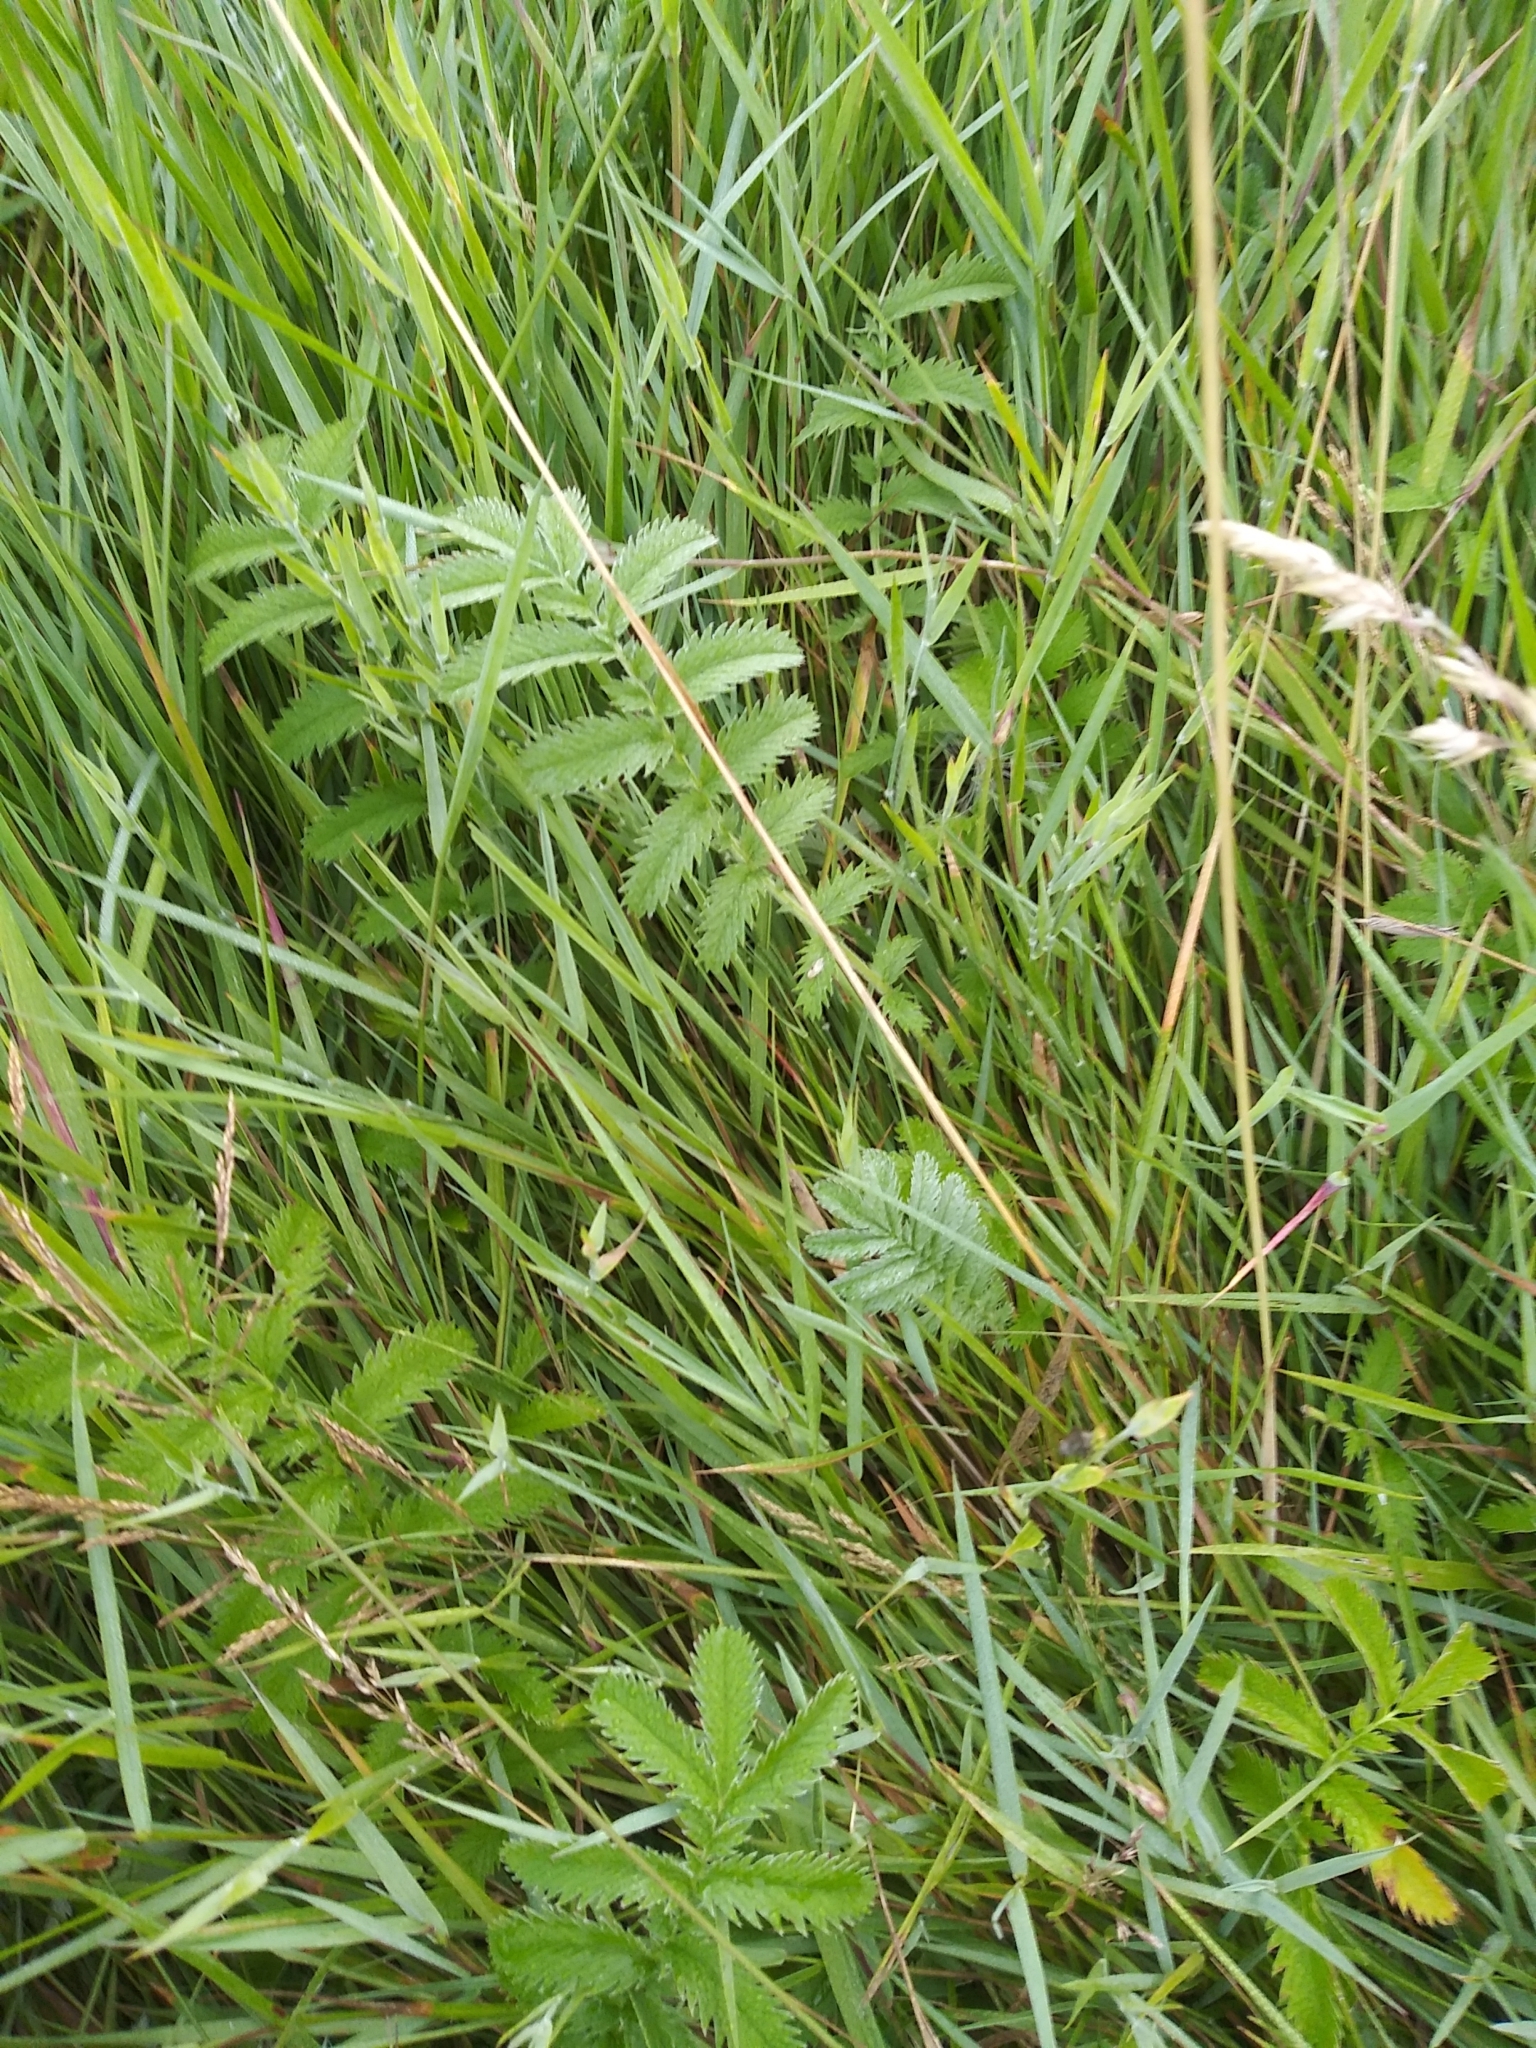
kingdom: Plantae
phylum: Tracheophyta
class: Magnoliopsida
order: Rosales
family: Rosaceae
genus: Argentina
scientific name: Argentina anserina
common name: Common silverweed
